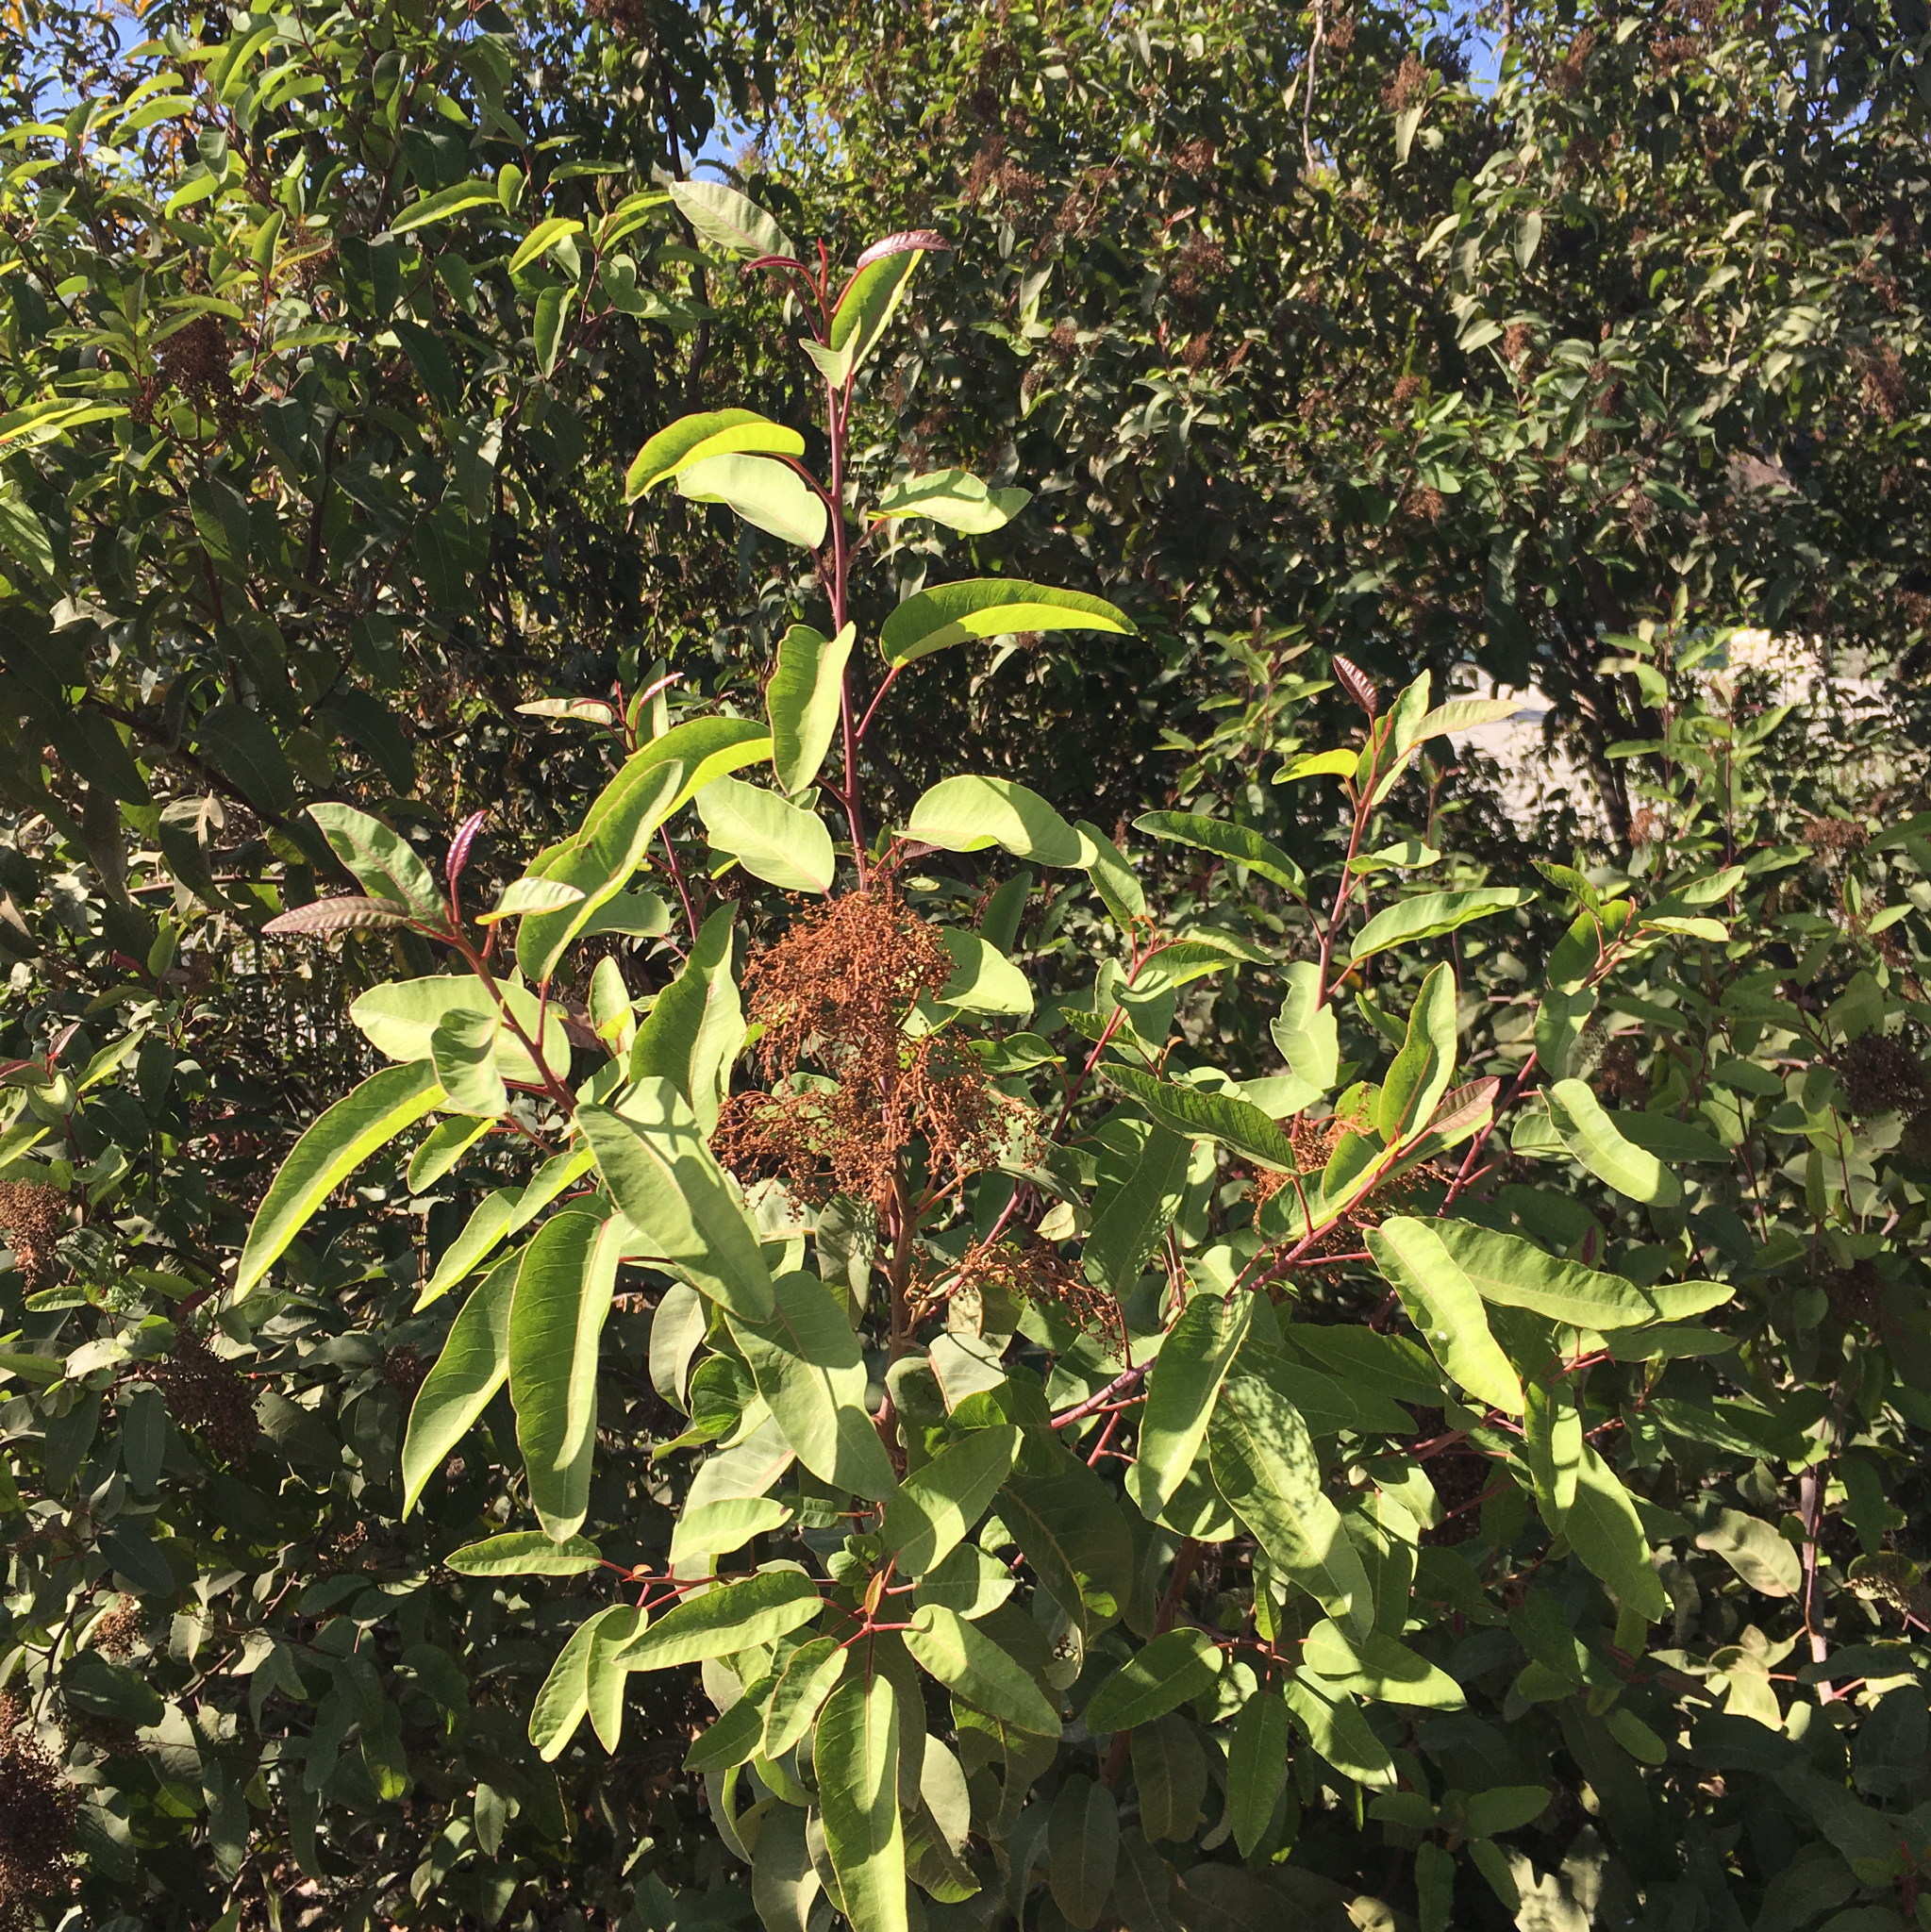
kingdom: Plantae
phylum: Tracheophyta
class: Magnoliopsida
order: Sapindales
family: Anacardiaceae
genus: Malosma
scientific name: Malosma laurina
